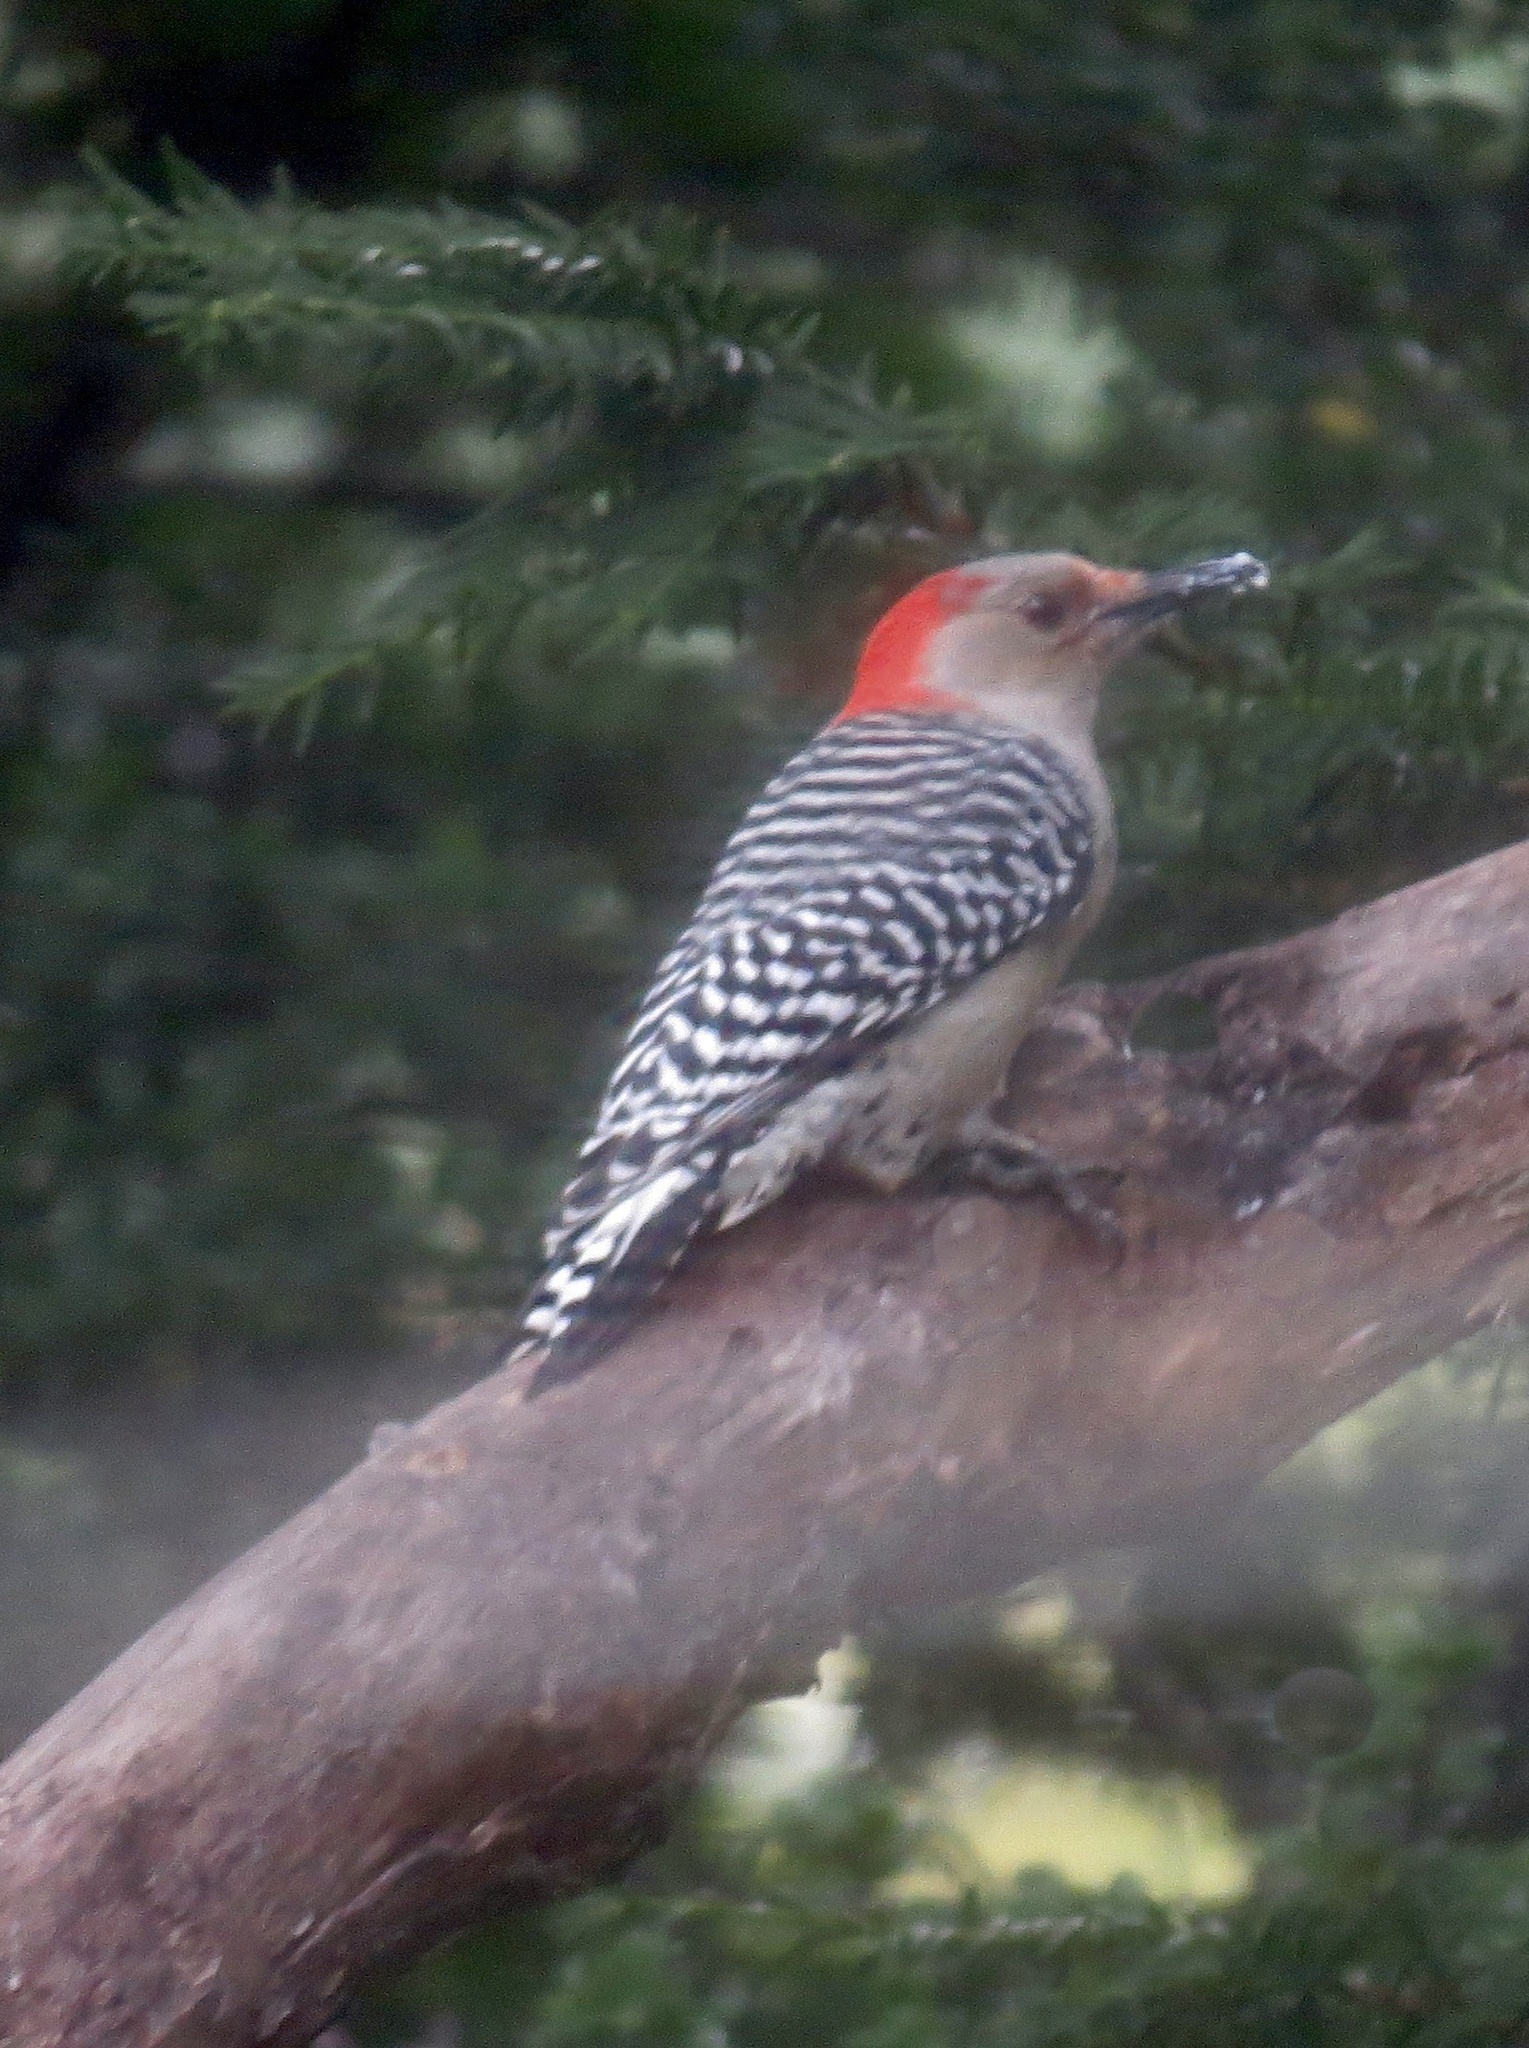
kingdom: Animalia
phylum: Chordata
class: Aves
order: Piciformes
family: Picidae
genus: Melanerpes
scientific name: Melanerpes carolinus
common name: Red-bellied woodpecker
